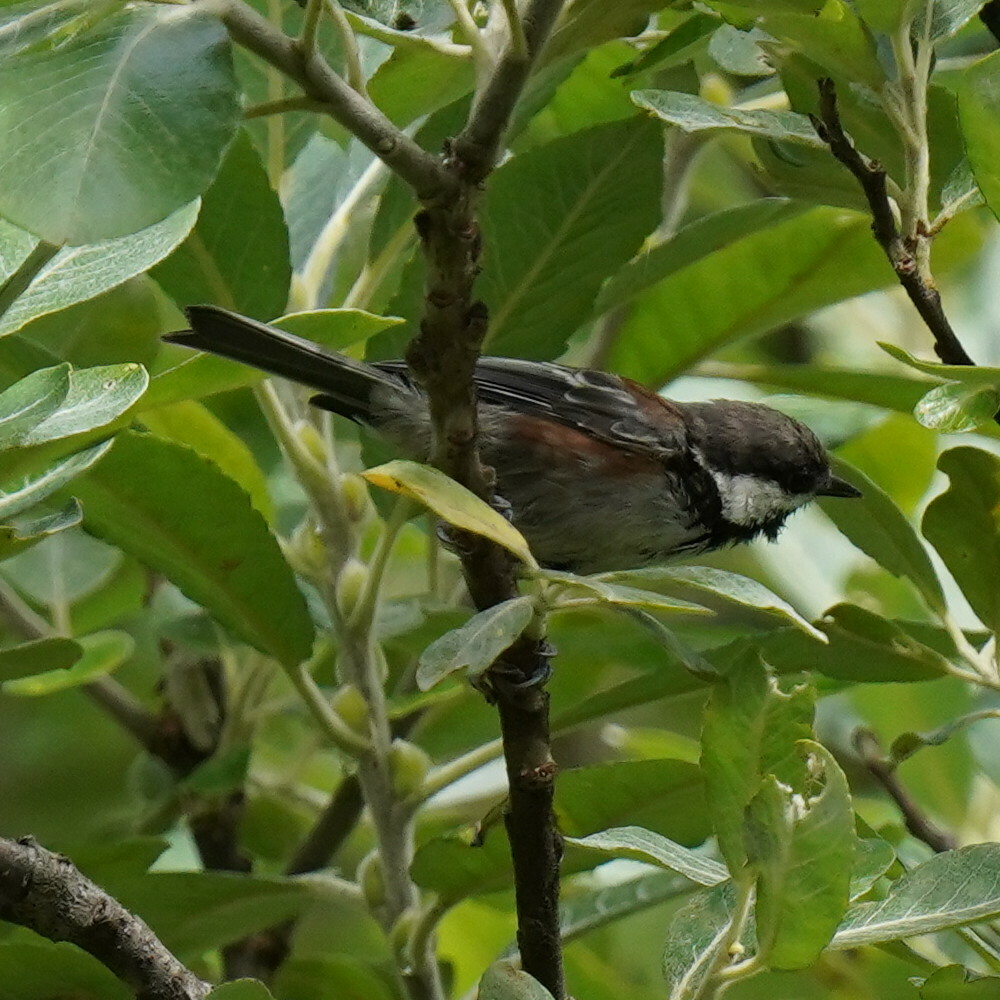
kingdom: Animalia
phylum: Chordata
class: Aves
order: Passeriformes
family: Paridae
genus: Poecile
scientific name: Poecile rufescens
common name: Chestnut-backed chickadee
